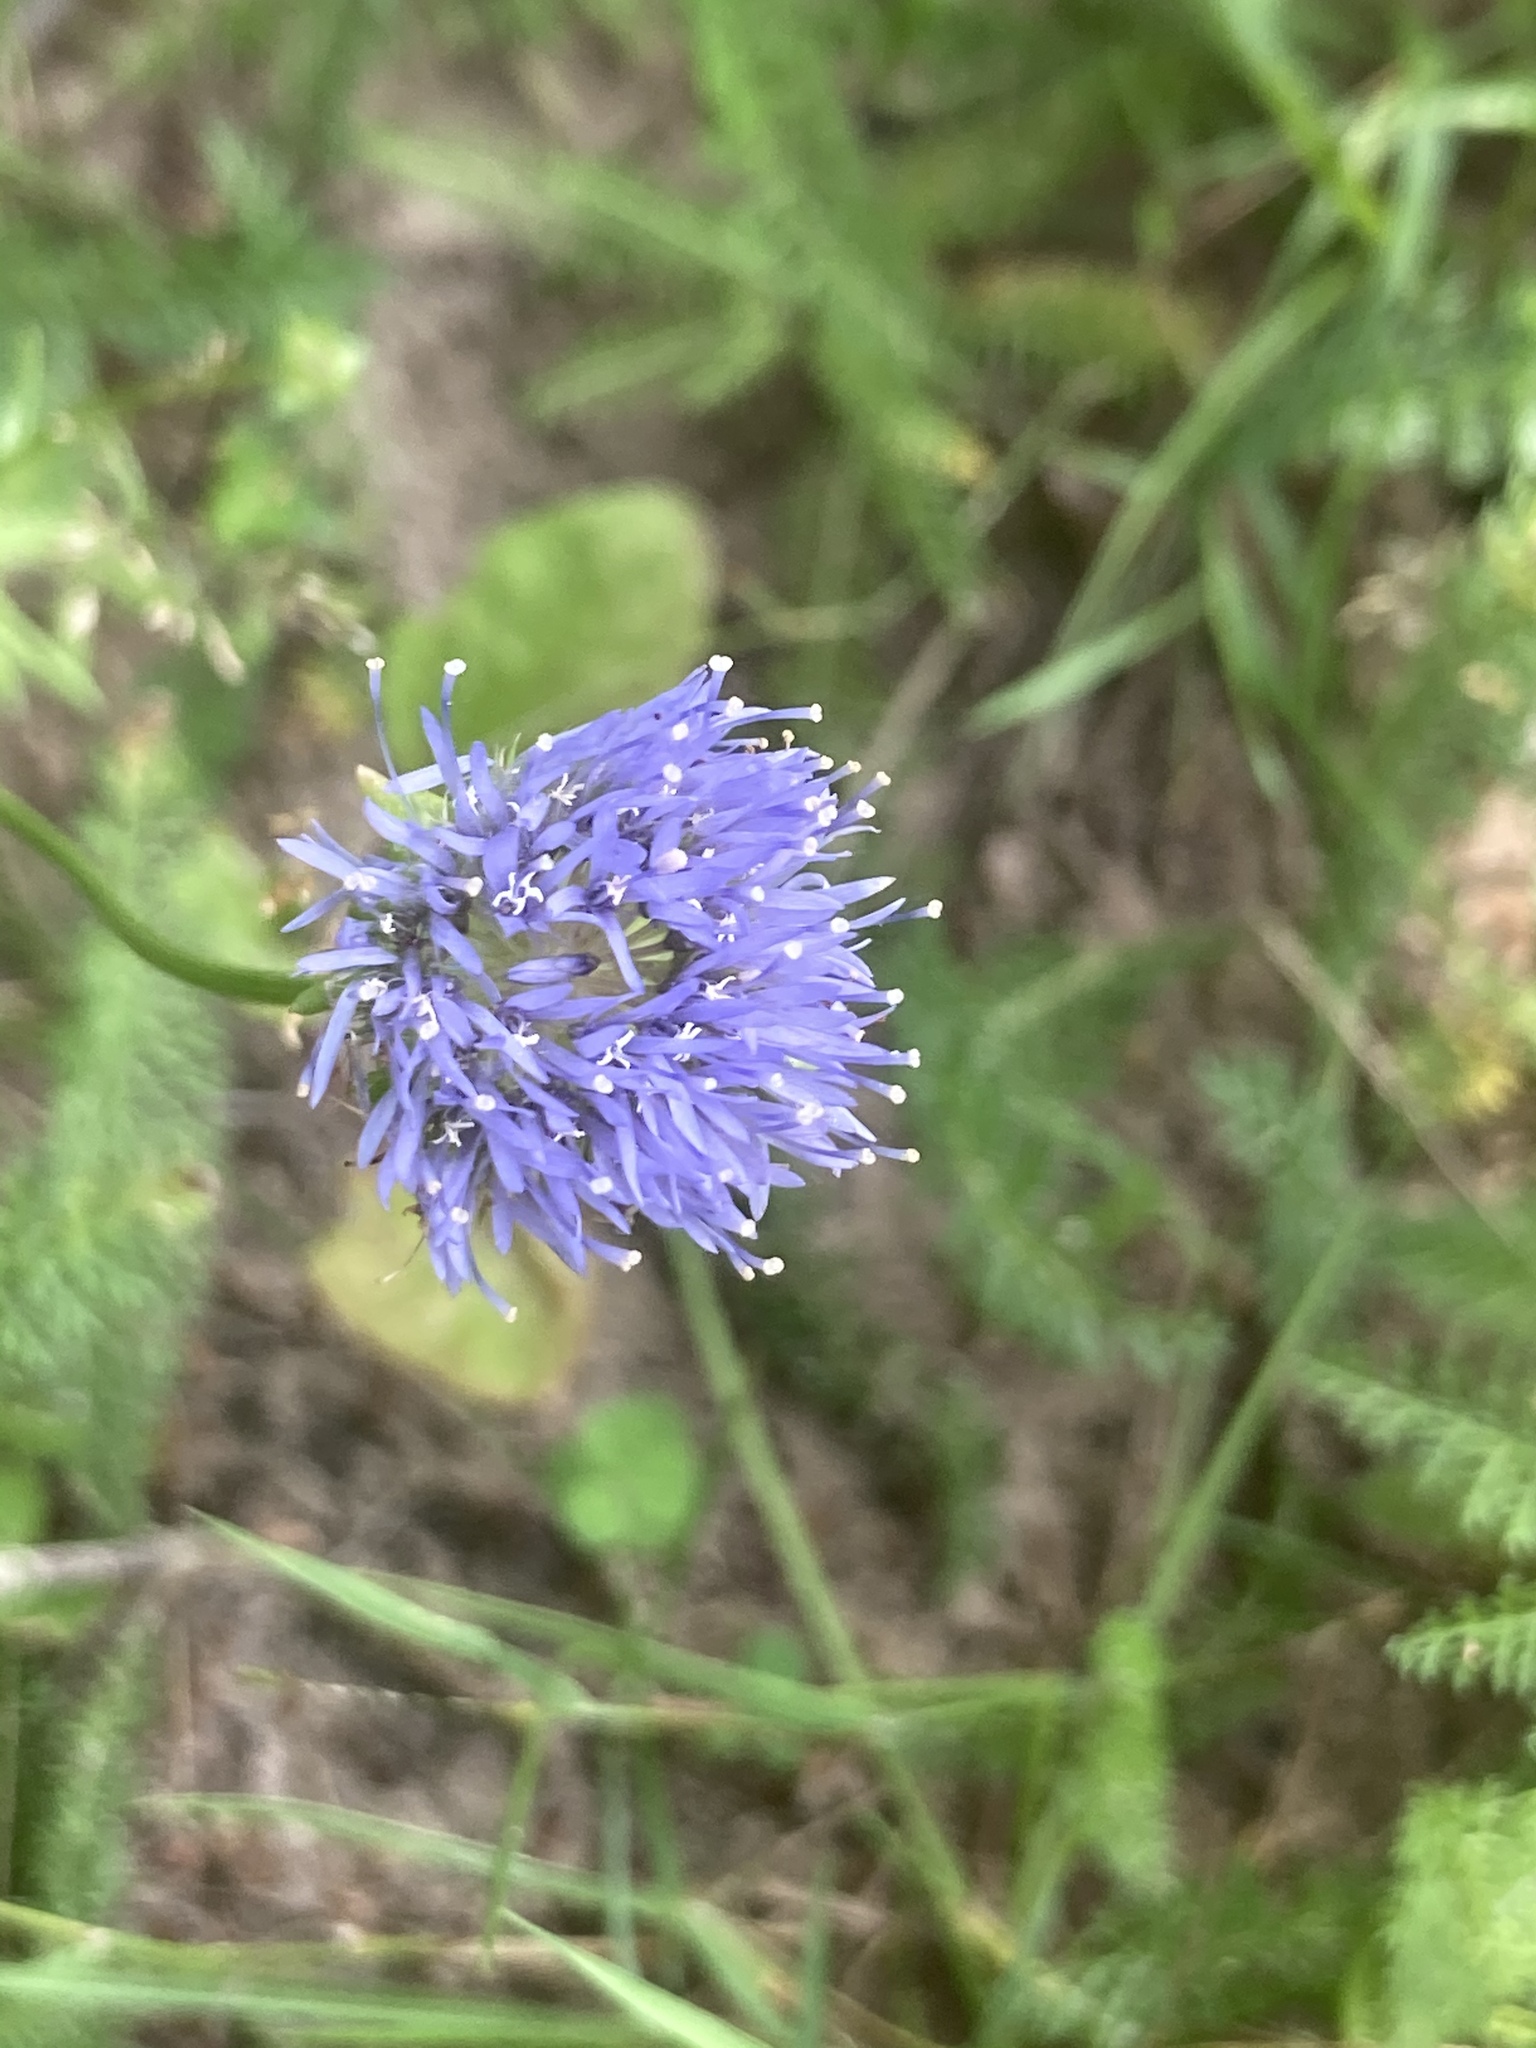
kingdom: Plantae
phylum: Tracheophyta
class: Magnoliopsida
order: Asterales
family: Campanulaceae
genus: Jasione
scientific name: Jasione montana
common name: Sheep's-bit
